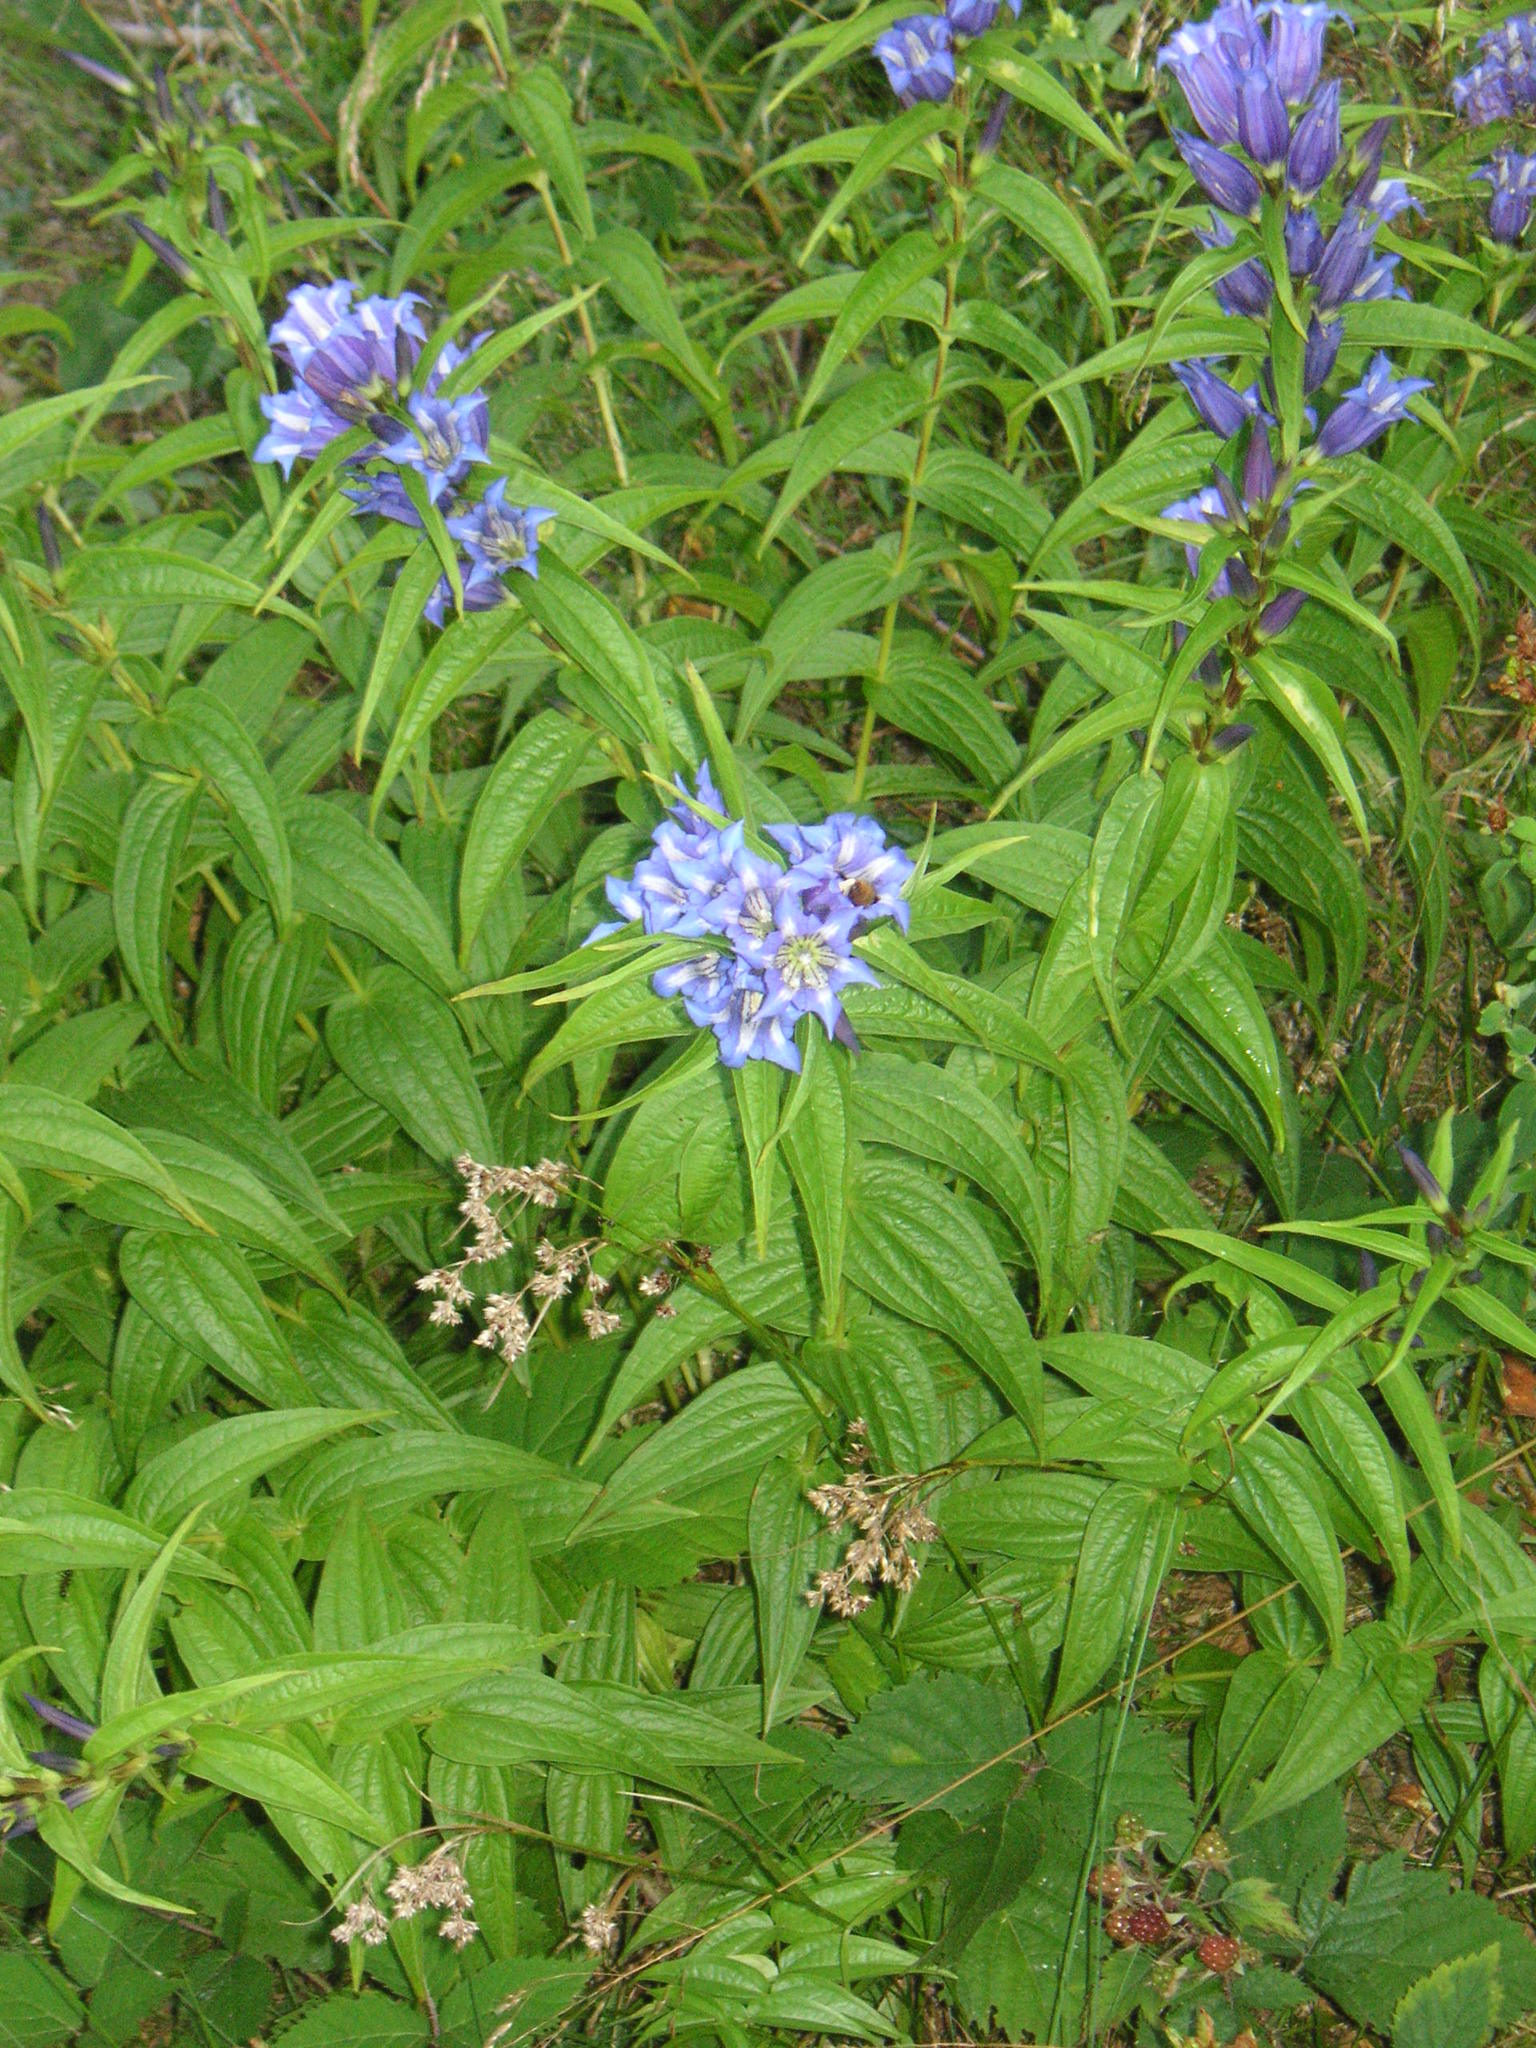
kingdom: Plantae
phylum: Tracheophyta
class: Magnoliopsida
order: Gentianales
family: Gentianaceae
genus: Gentiana
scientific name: Gentiana asclepiadea
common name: Willow gentian
